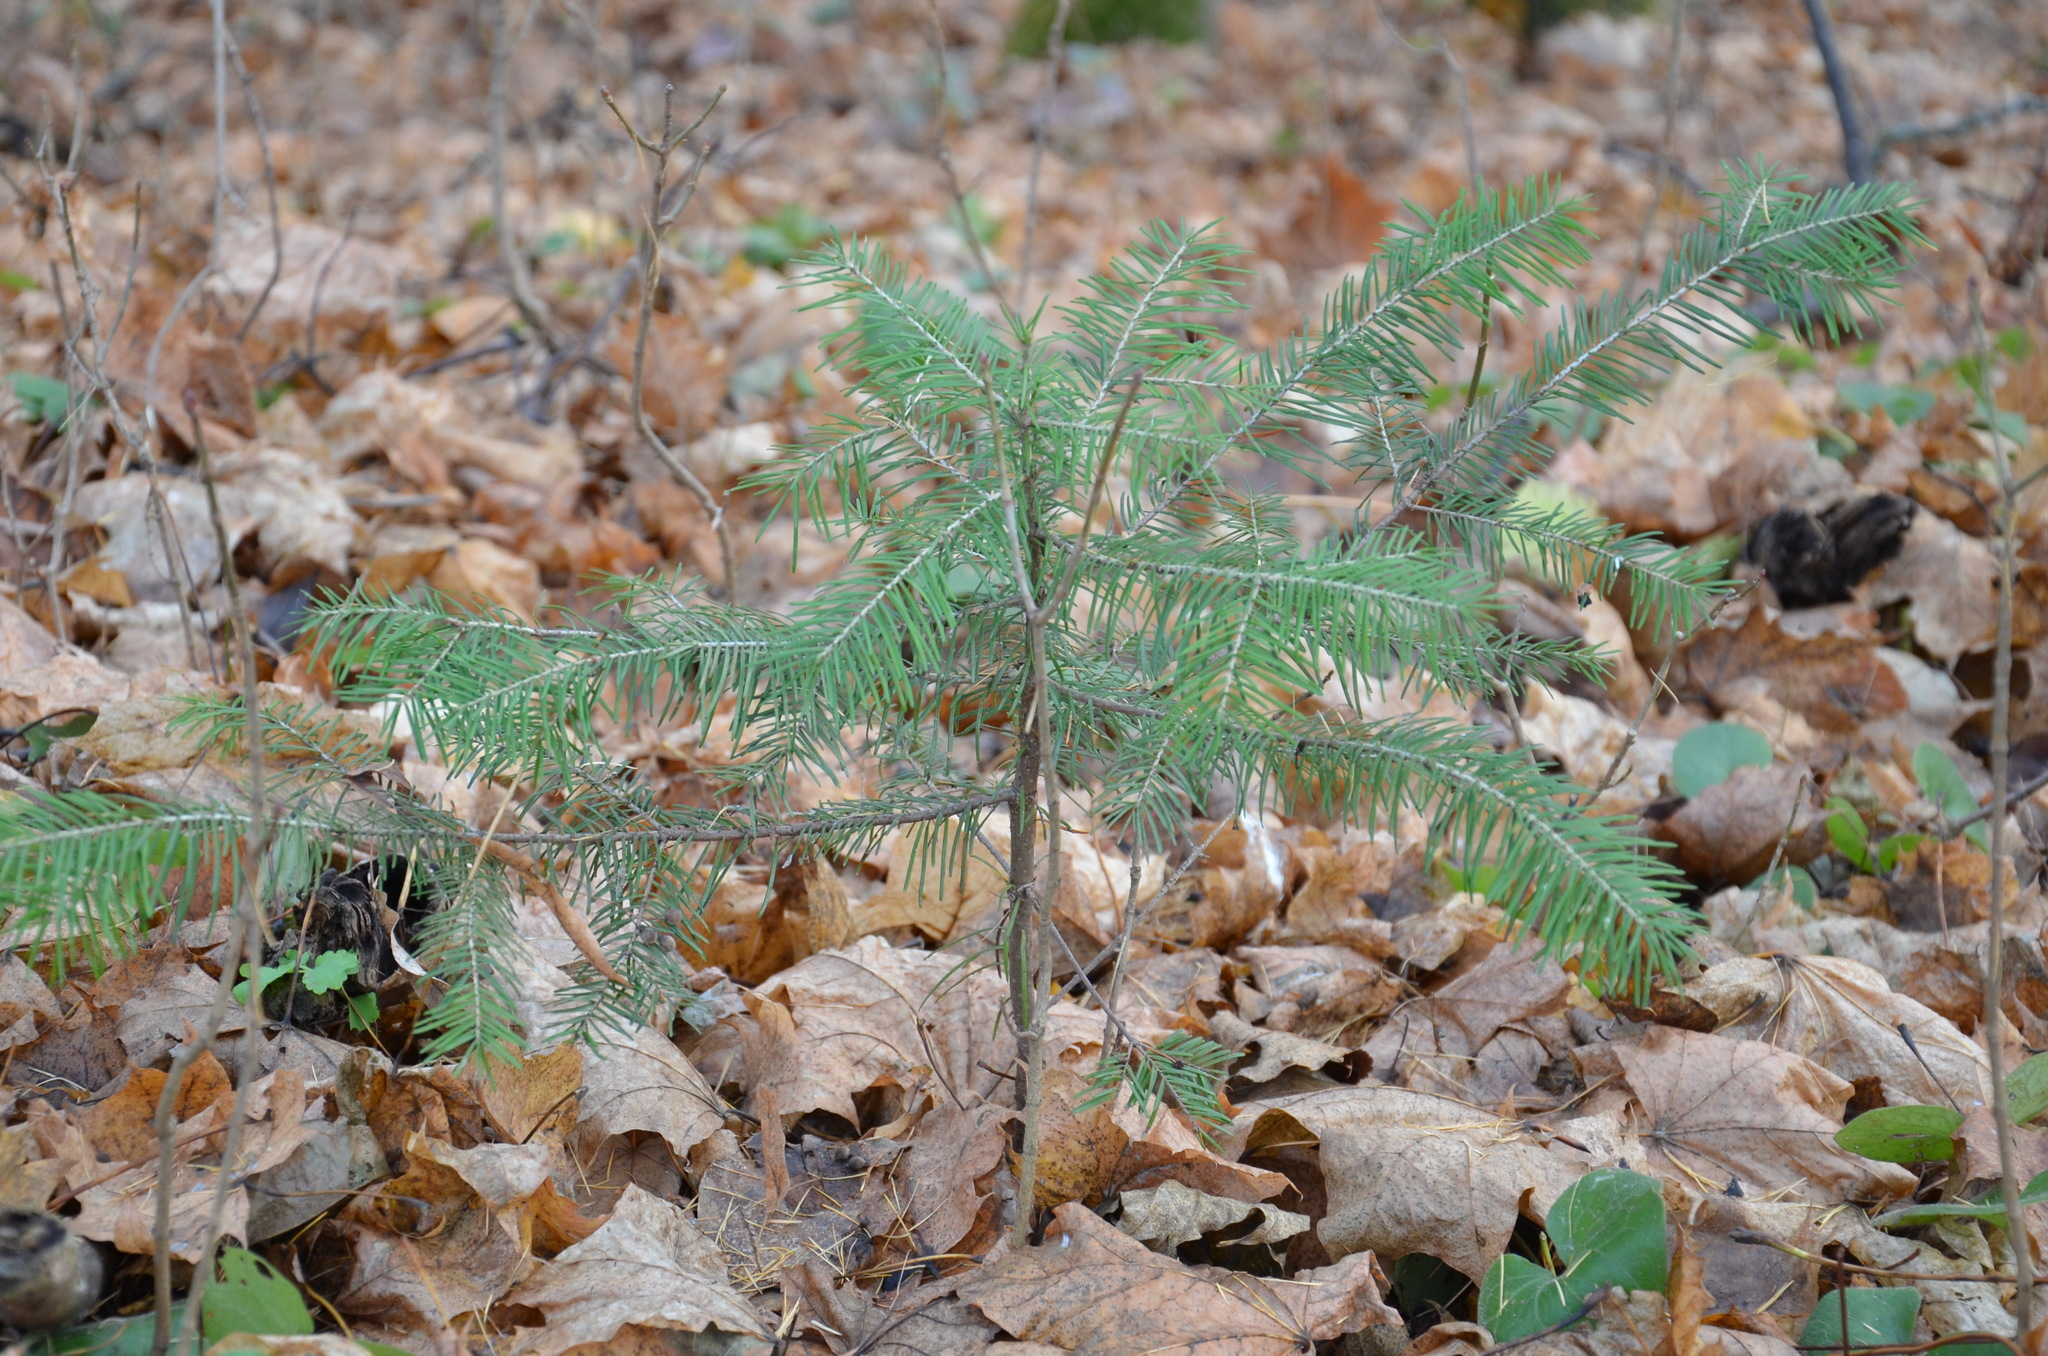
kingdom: Plantae
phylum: Tracheophyta
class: Pinopsida
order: Pinales
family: Pinaceae
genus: Picea
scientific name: Picea abies
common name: Norway spruce
